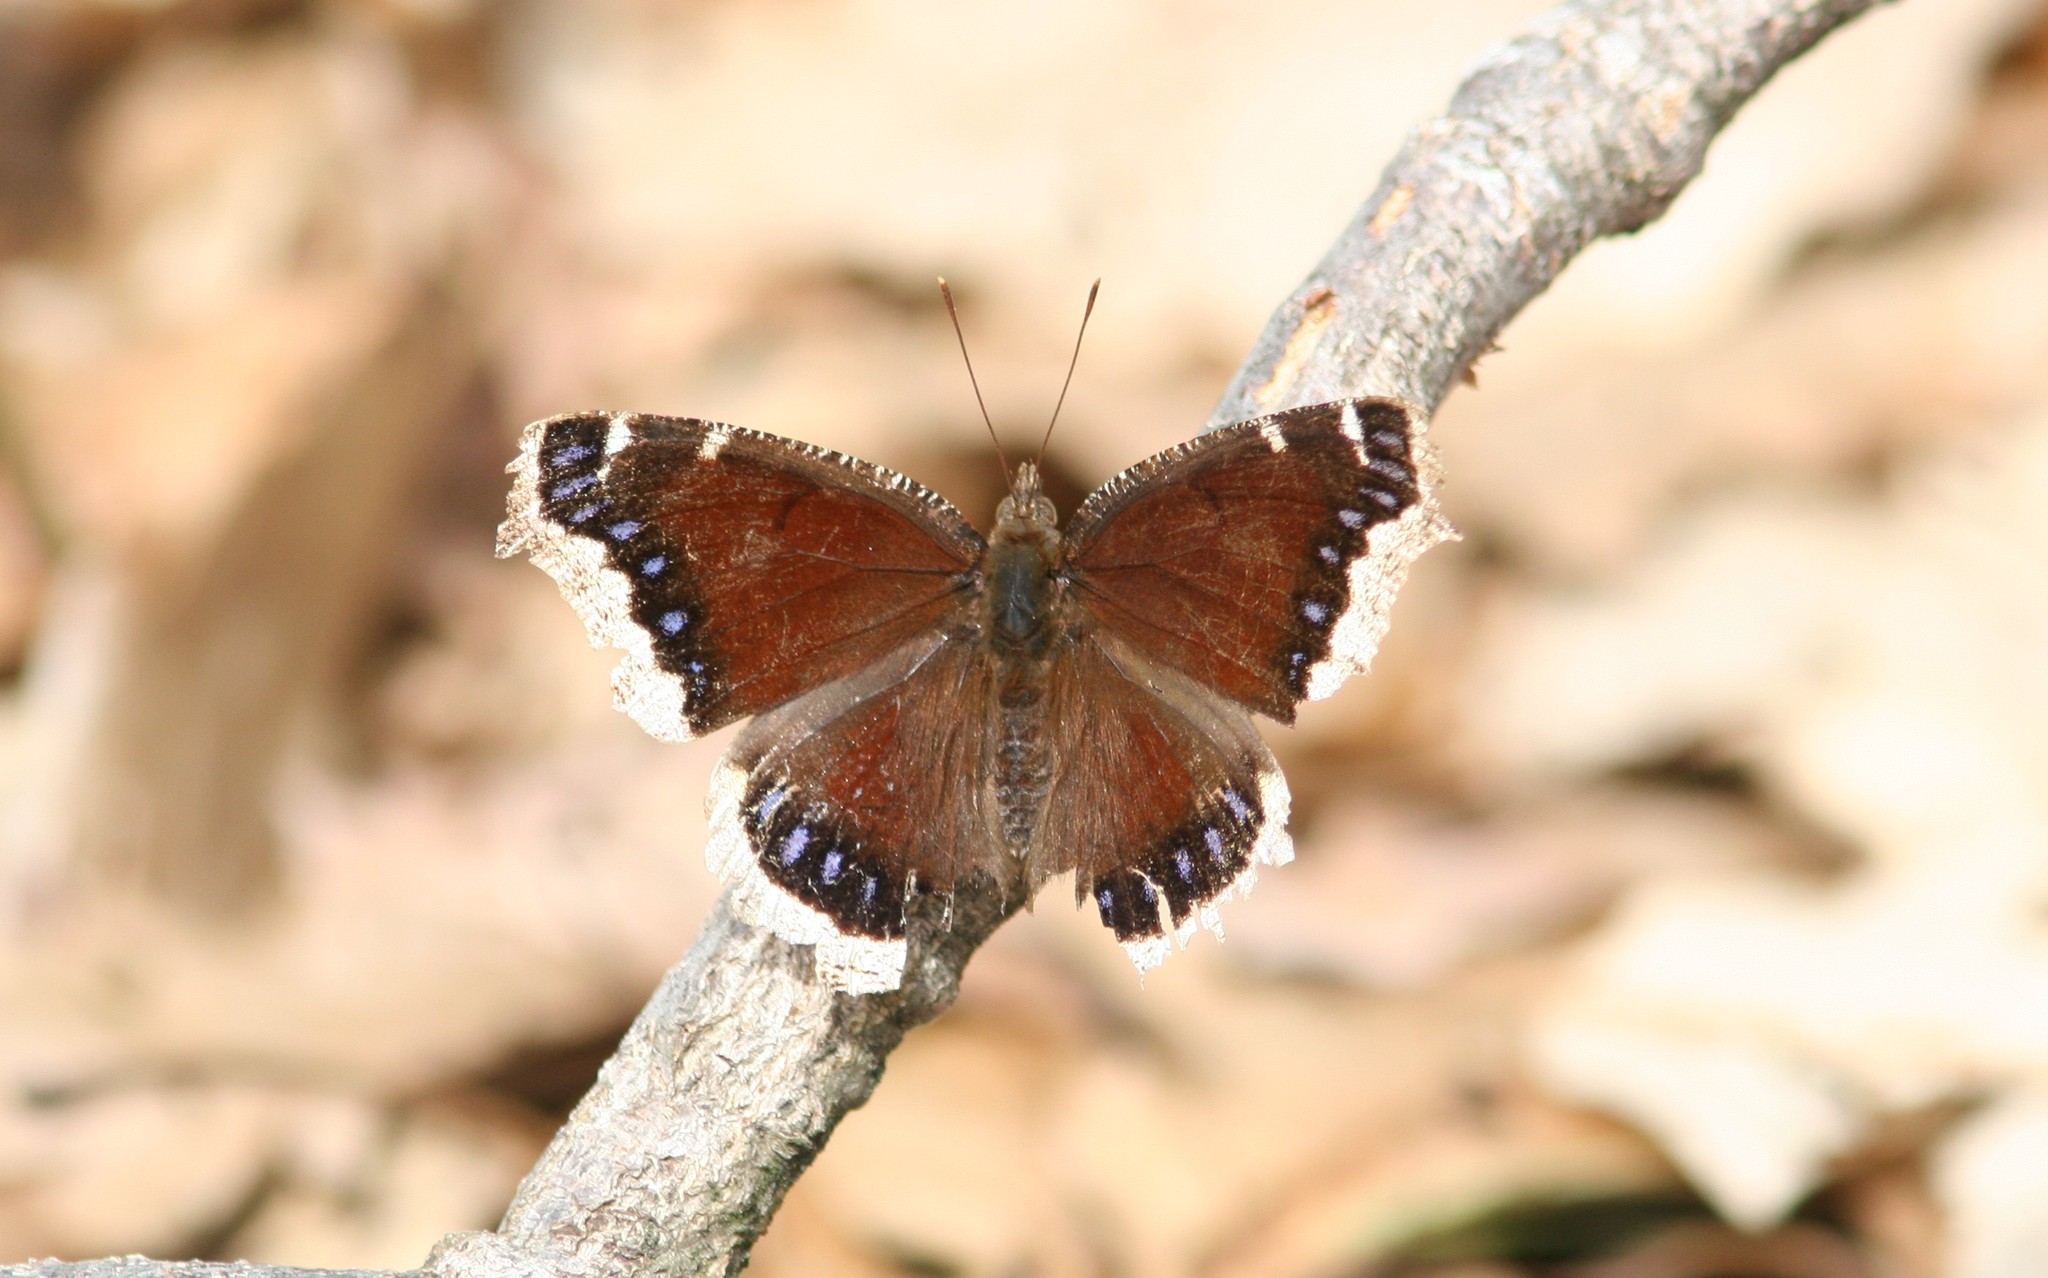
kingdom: Animalia
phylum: Arthropoda
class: Insecta
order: Lepidoptera
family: Nymphalidae
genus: Nymphalis
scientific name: Nymphalis antiopa
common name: Camberwell beauty
